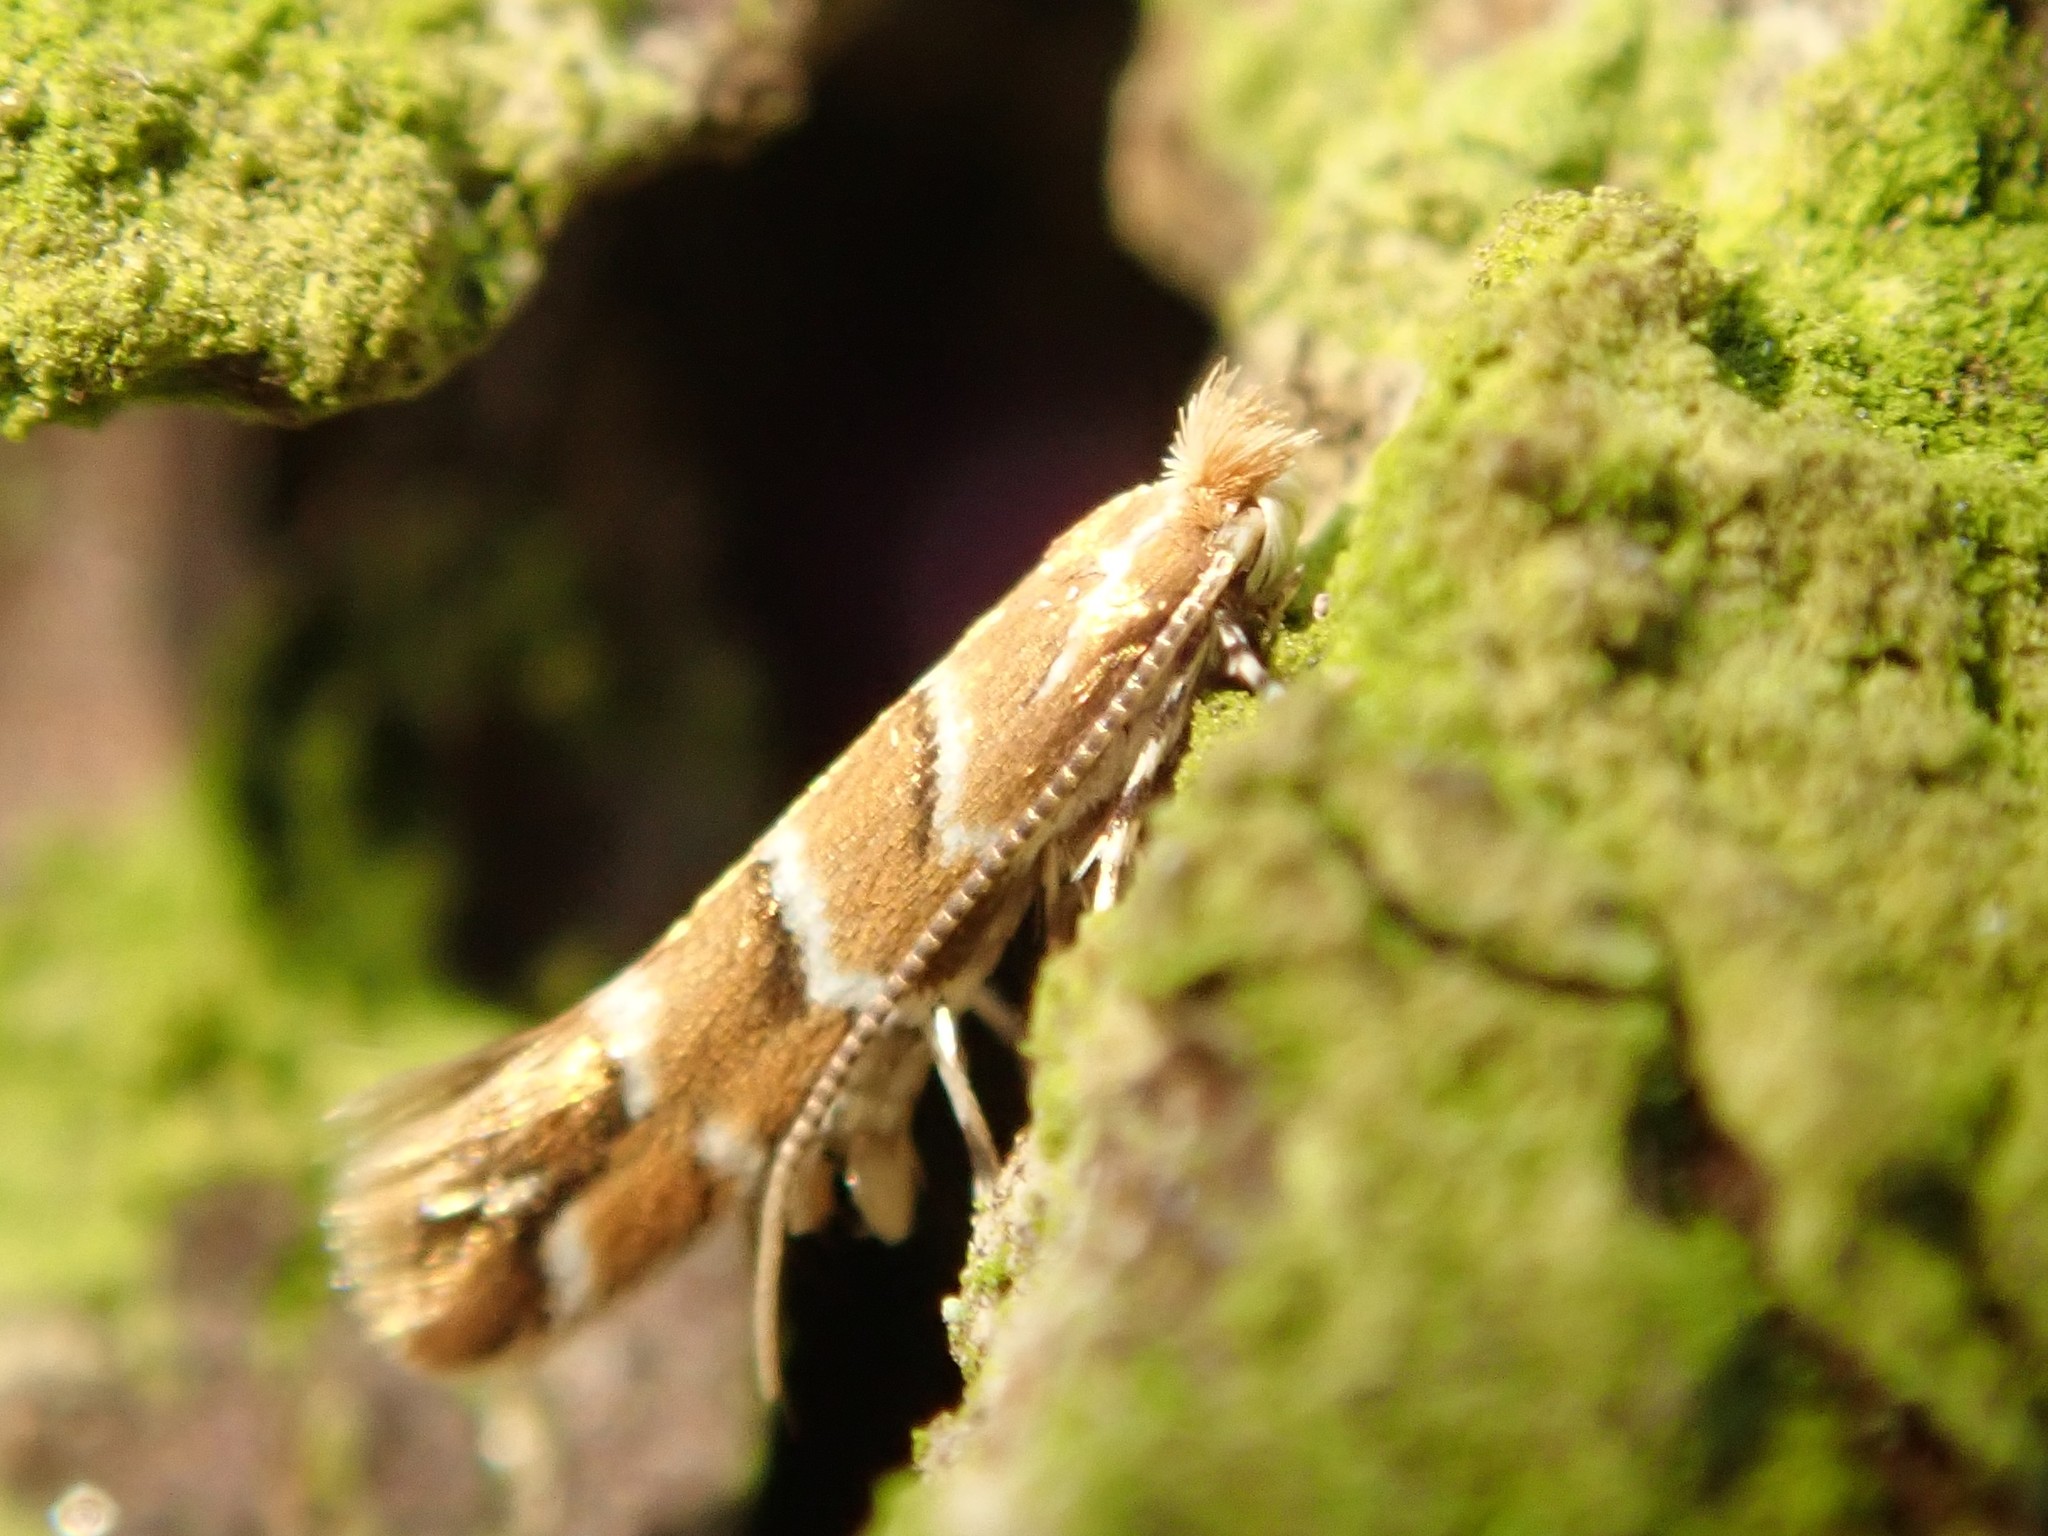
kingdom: Animalia
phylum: Arthropoda
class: Insecta
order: Lepidoptera
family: Gracillariidae
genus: Cameraria
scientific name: Cameraria ohridella
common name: Horse-chestnut leaf-miner
